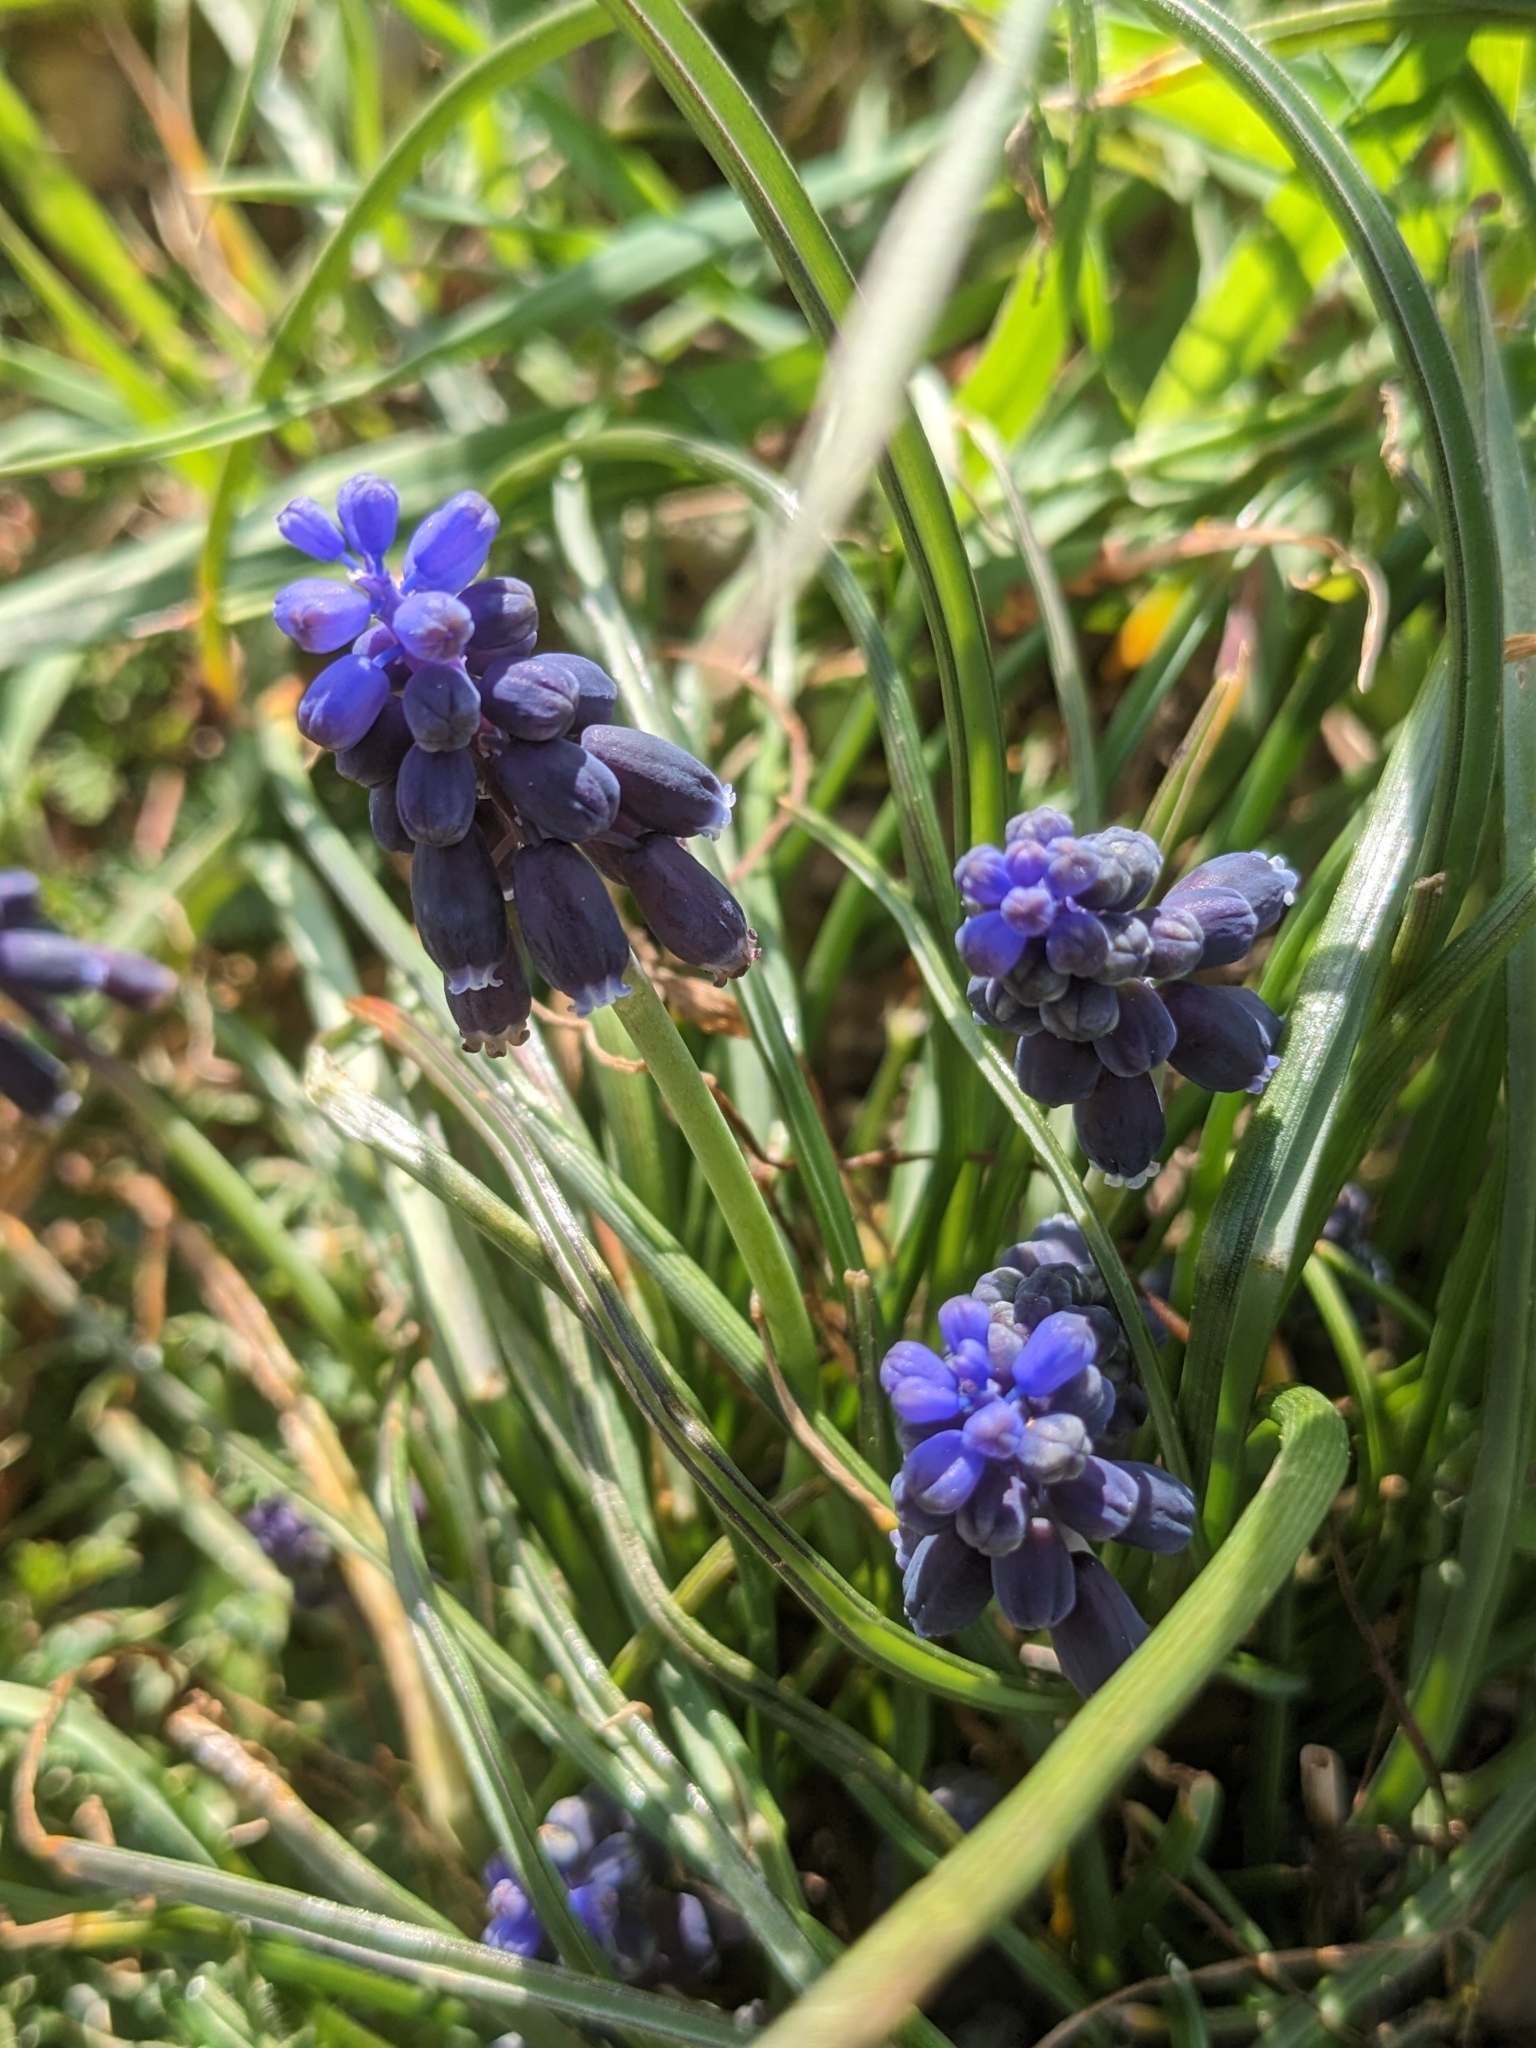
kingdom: Plantae
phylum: Tracheophyta
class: Liliopsida
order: Asparagales
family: Asparagaceae
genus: Muscari
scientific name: Muscari neglectum
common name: Grape-hyacinth
